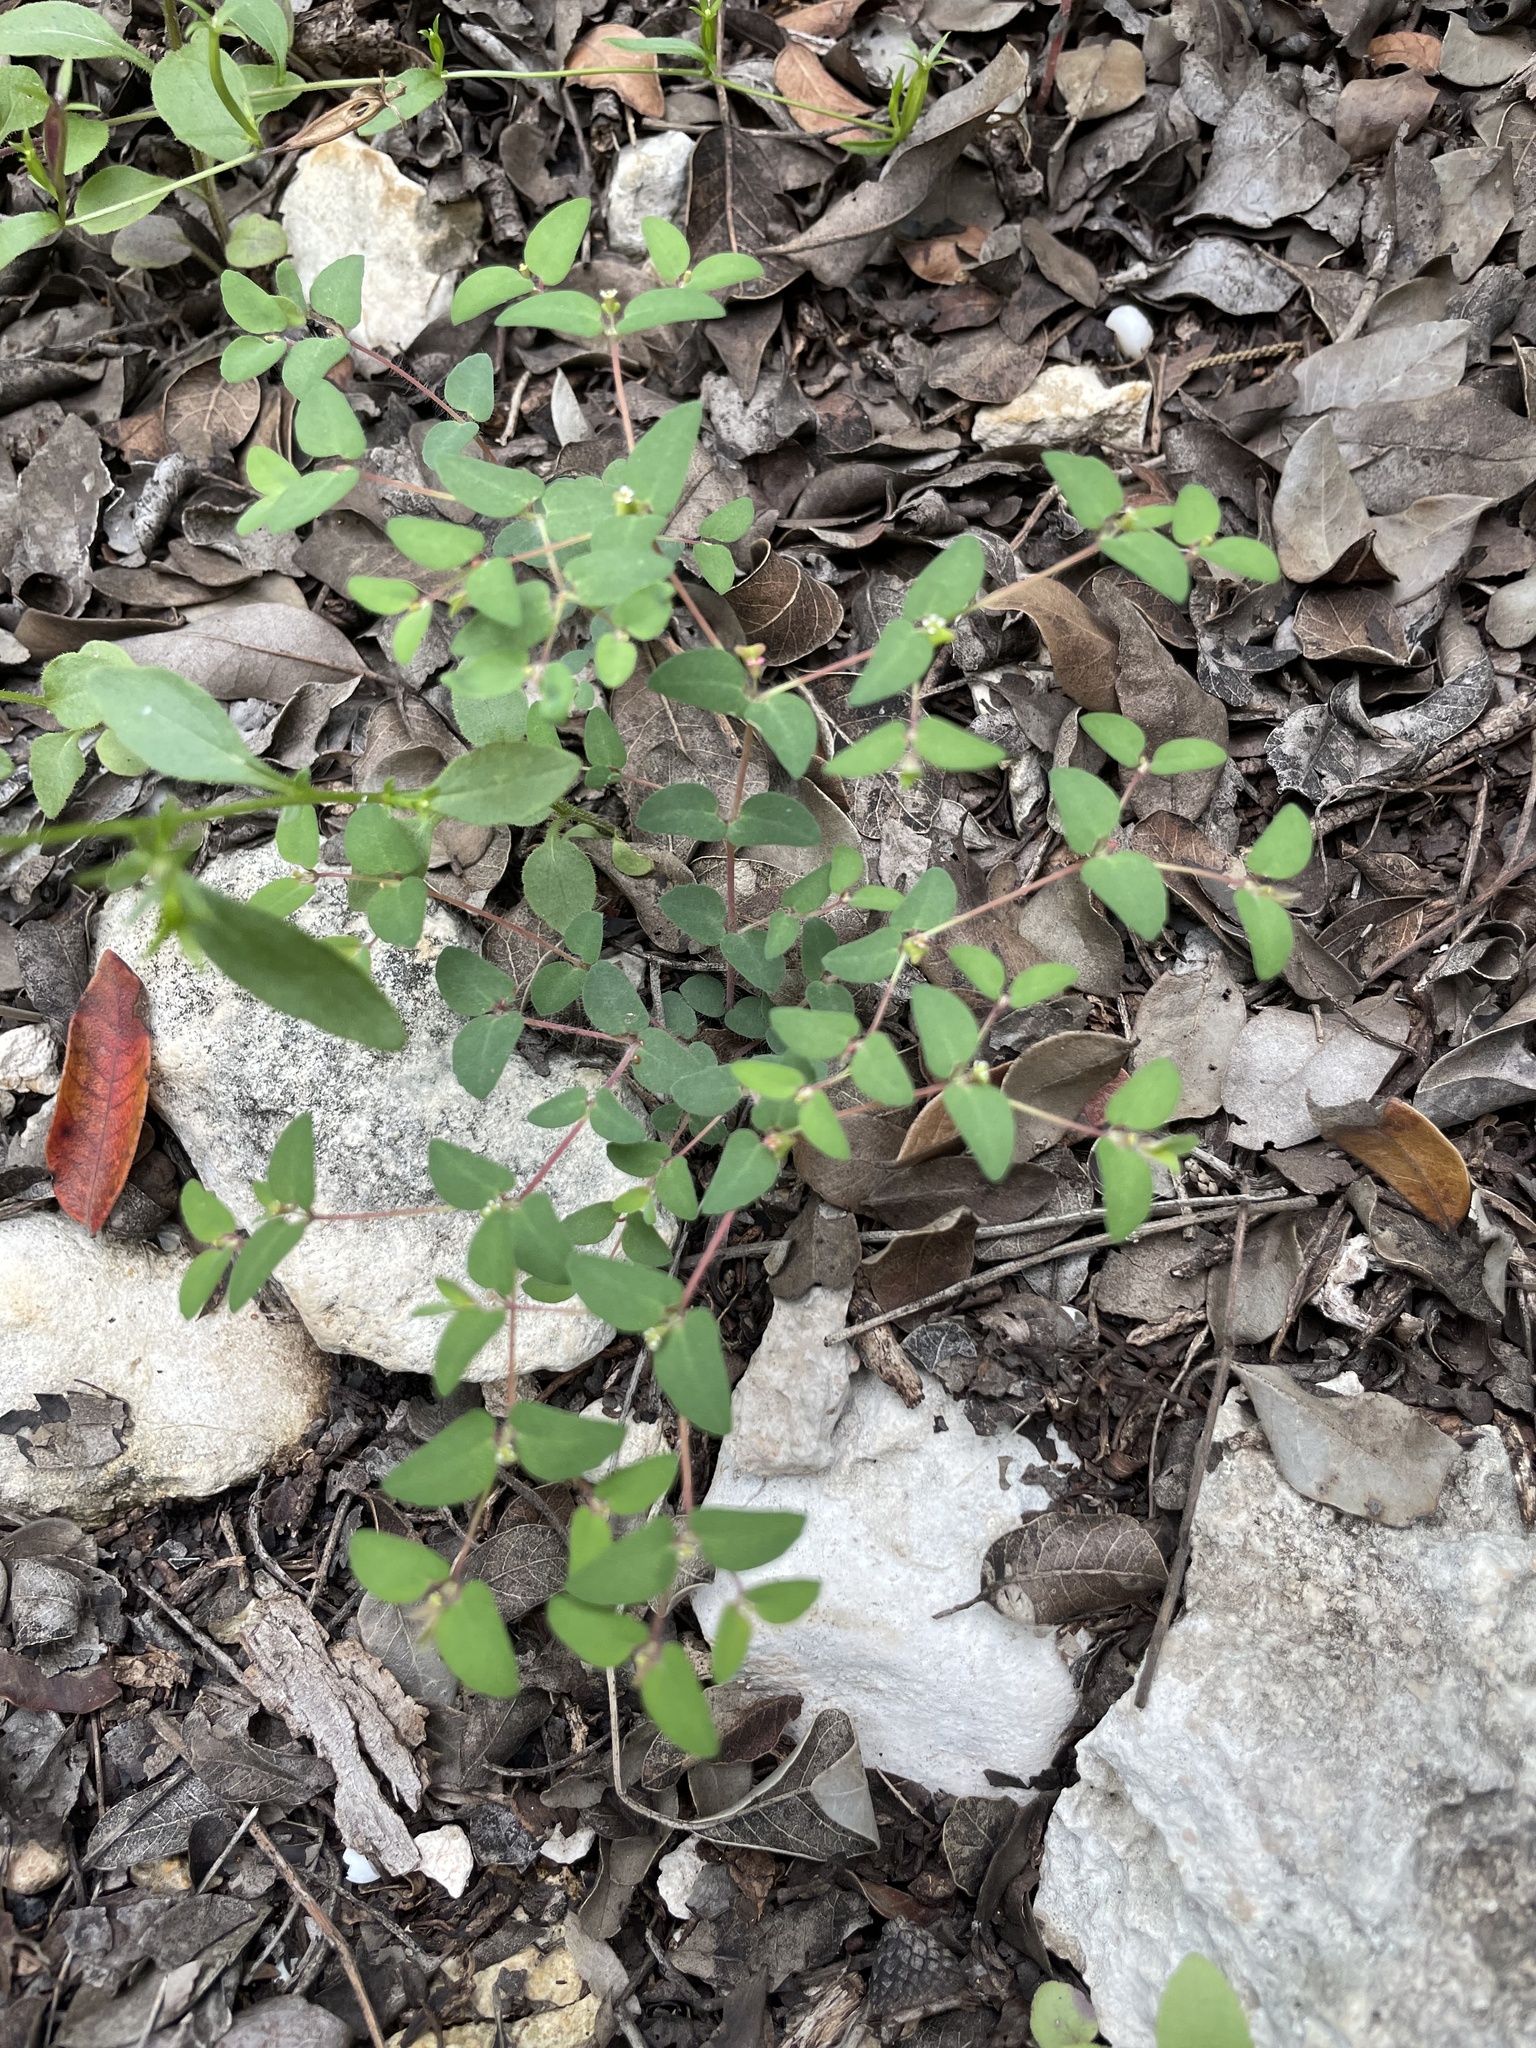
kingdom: Plantae
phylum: Tracheophyta
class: Magnoliopsida
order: Malpighiales
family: Euphorbiaceae
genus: Euphorbia
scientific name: Euphorbia villifera
